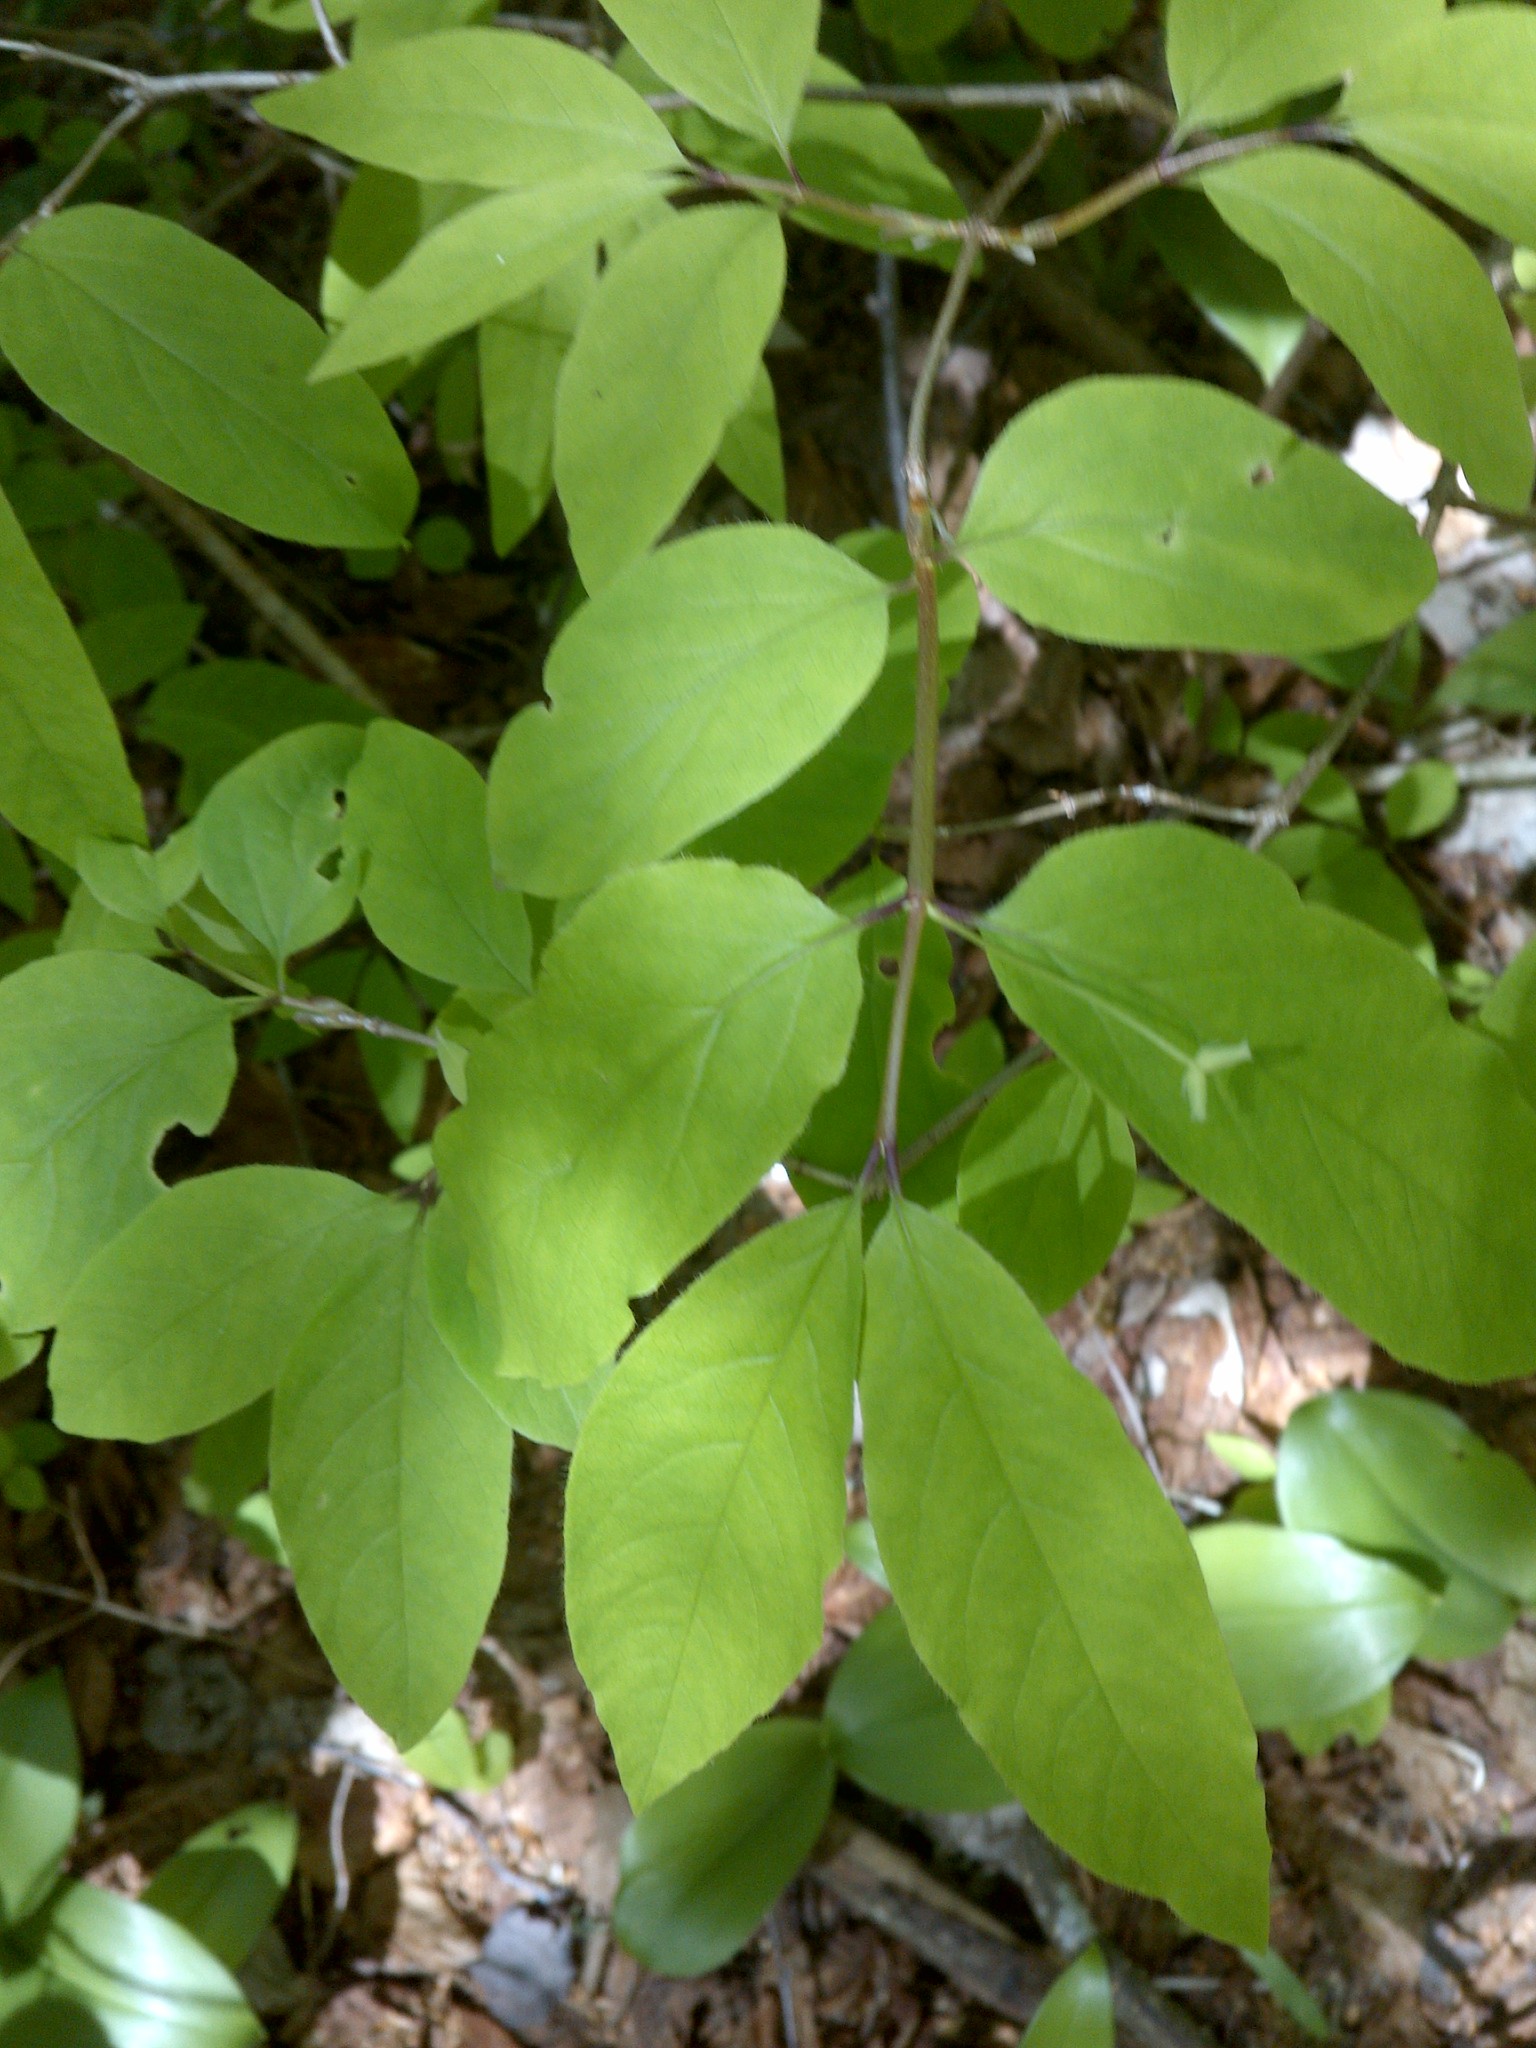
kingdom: Plantae
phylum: Tracheophyta
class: Magnoliopsida
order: Dipsacales
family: Caprifoliaceae
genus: Lonicera
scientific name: Lonicera canadensis
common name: American fly-honeysuckle
